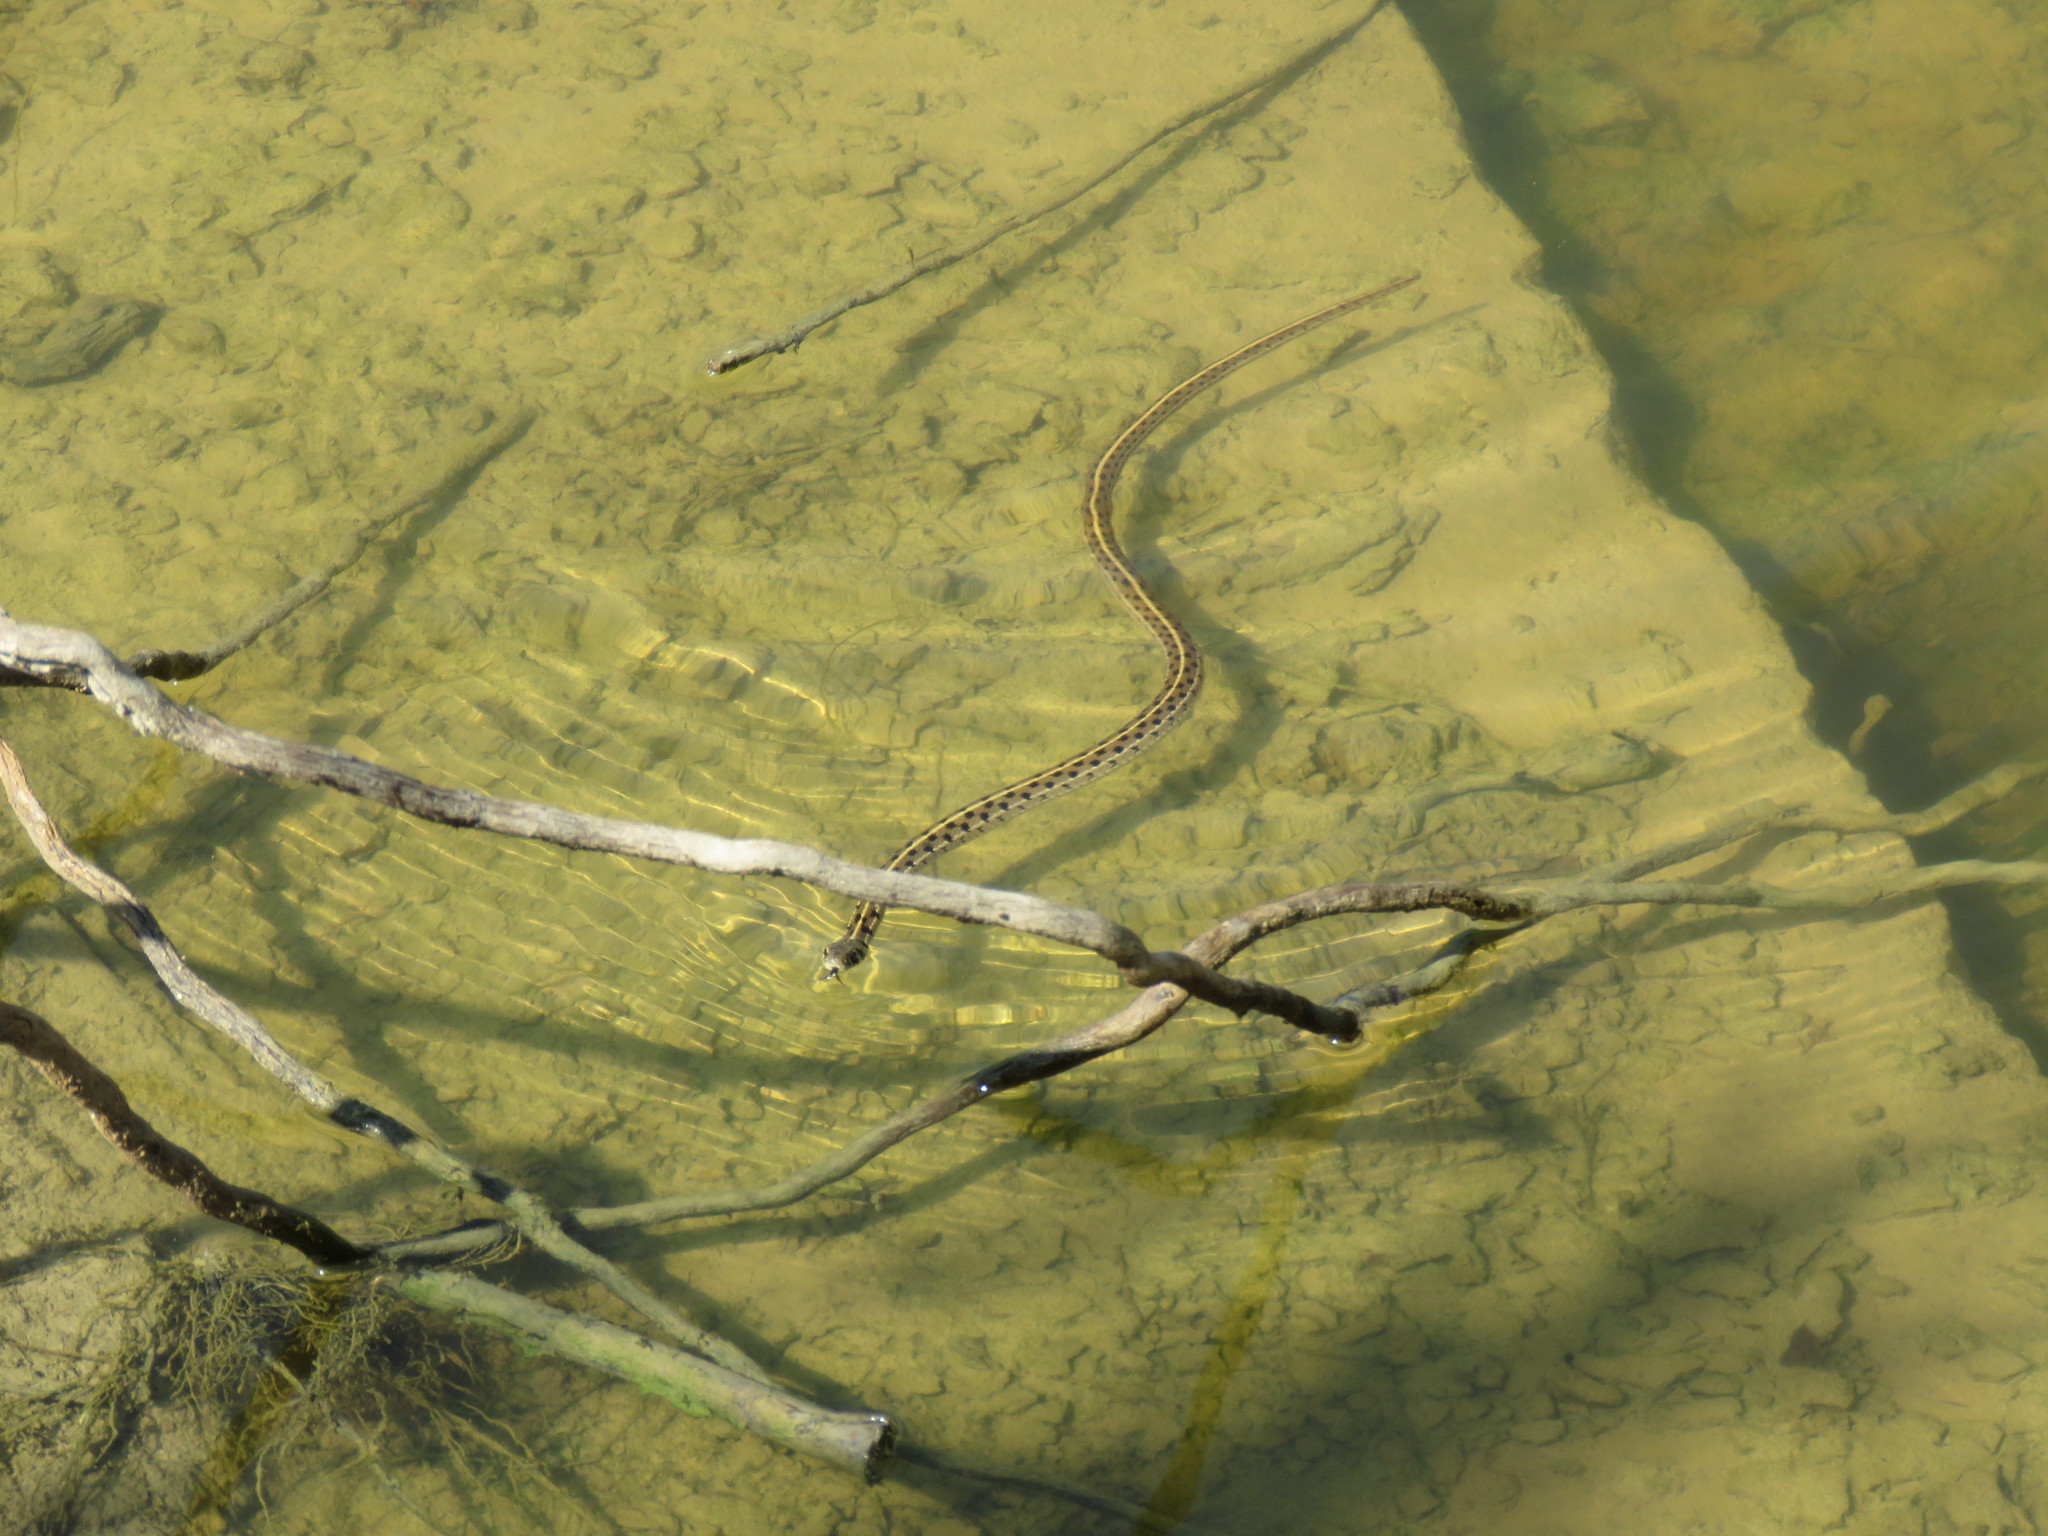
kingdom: Animalia
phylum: Chordata
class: Squamata
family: Colubridae
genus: Thamnophis
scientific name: Thamnophis marcianus
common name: Checkered garter snake
